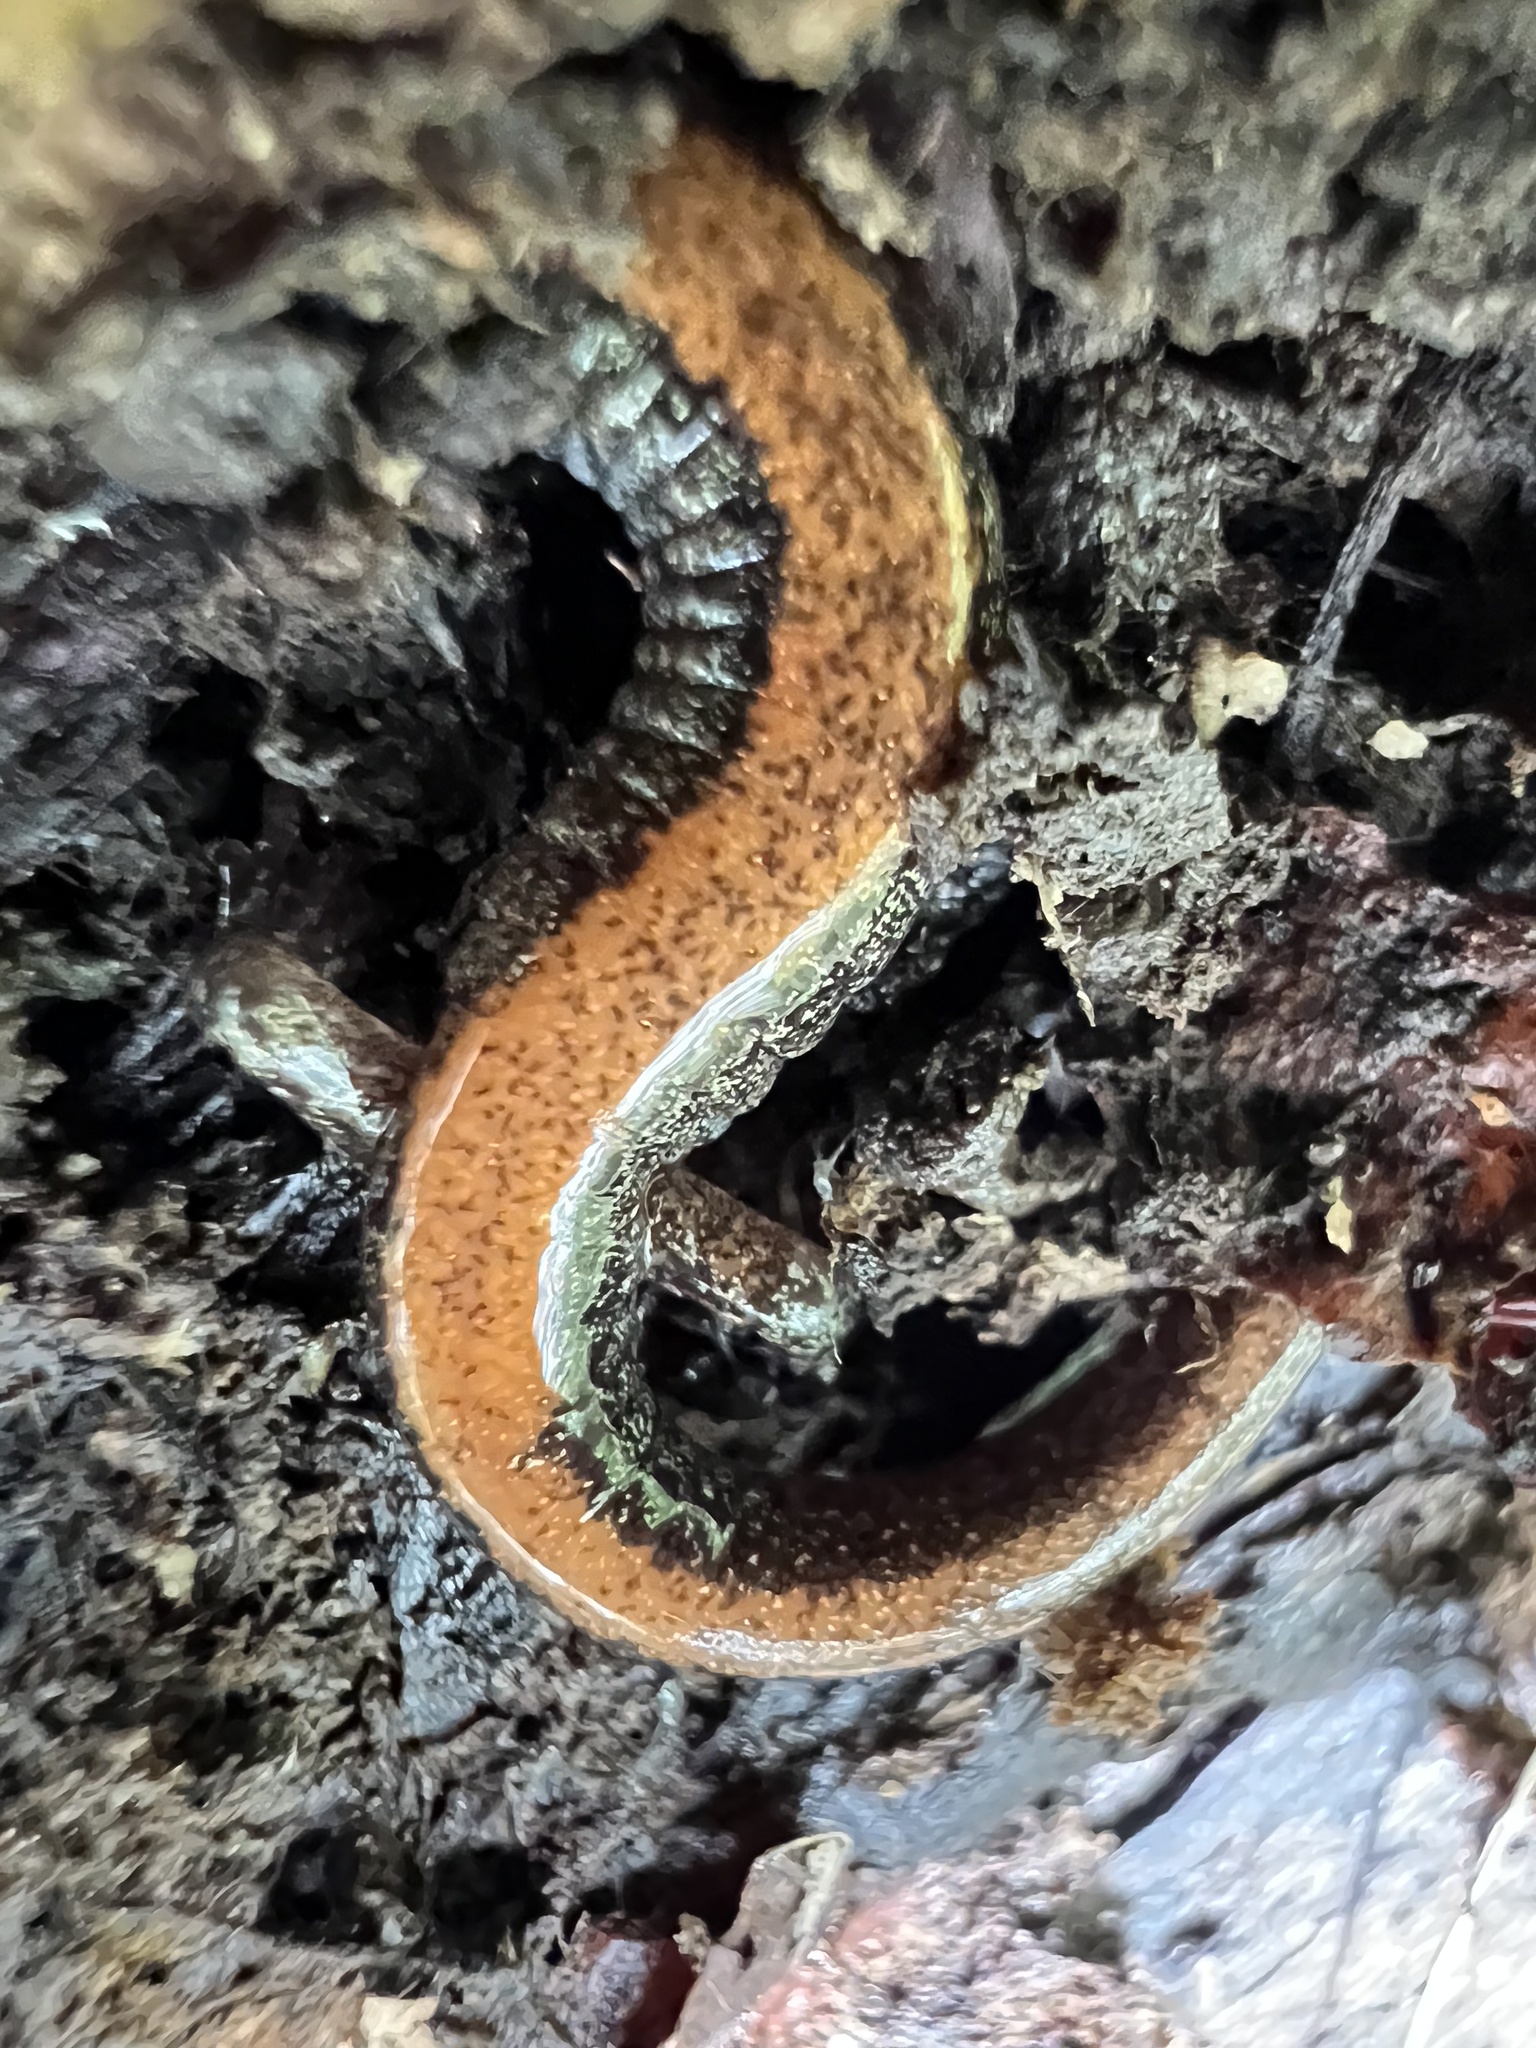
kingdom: Animalia
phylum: Chordata
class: Amphibia
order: Caudata
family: Plethodontidae
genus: Plethodon
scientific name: Plethodon cinereus
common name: Redback salamander
